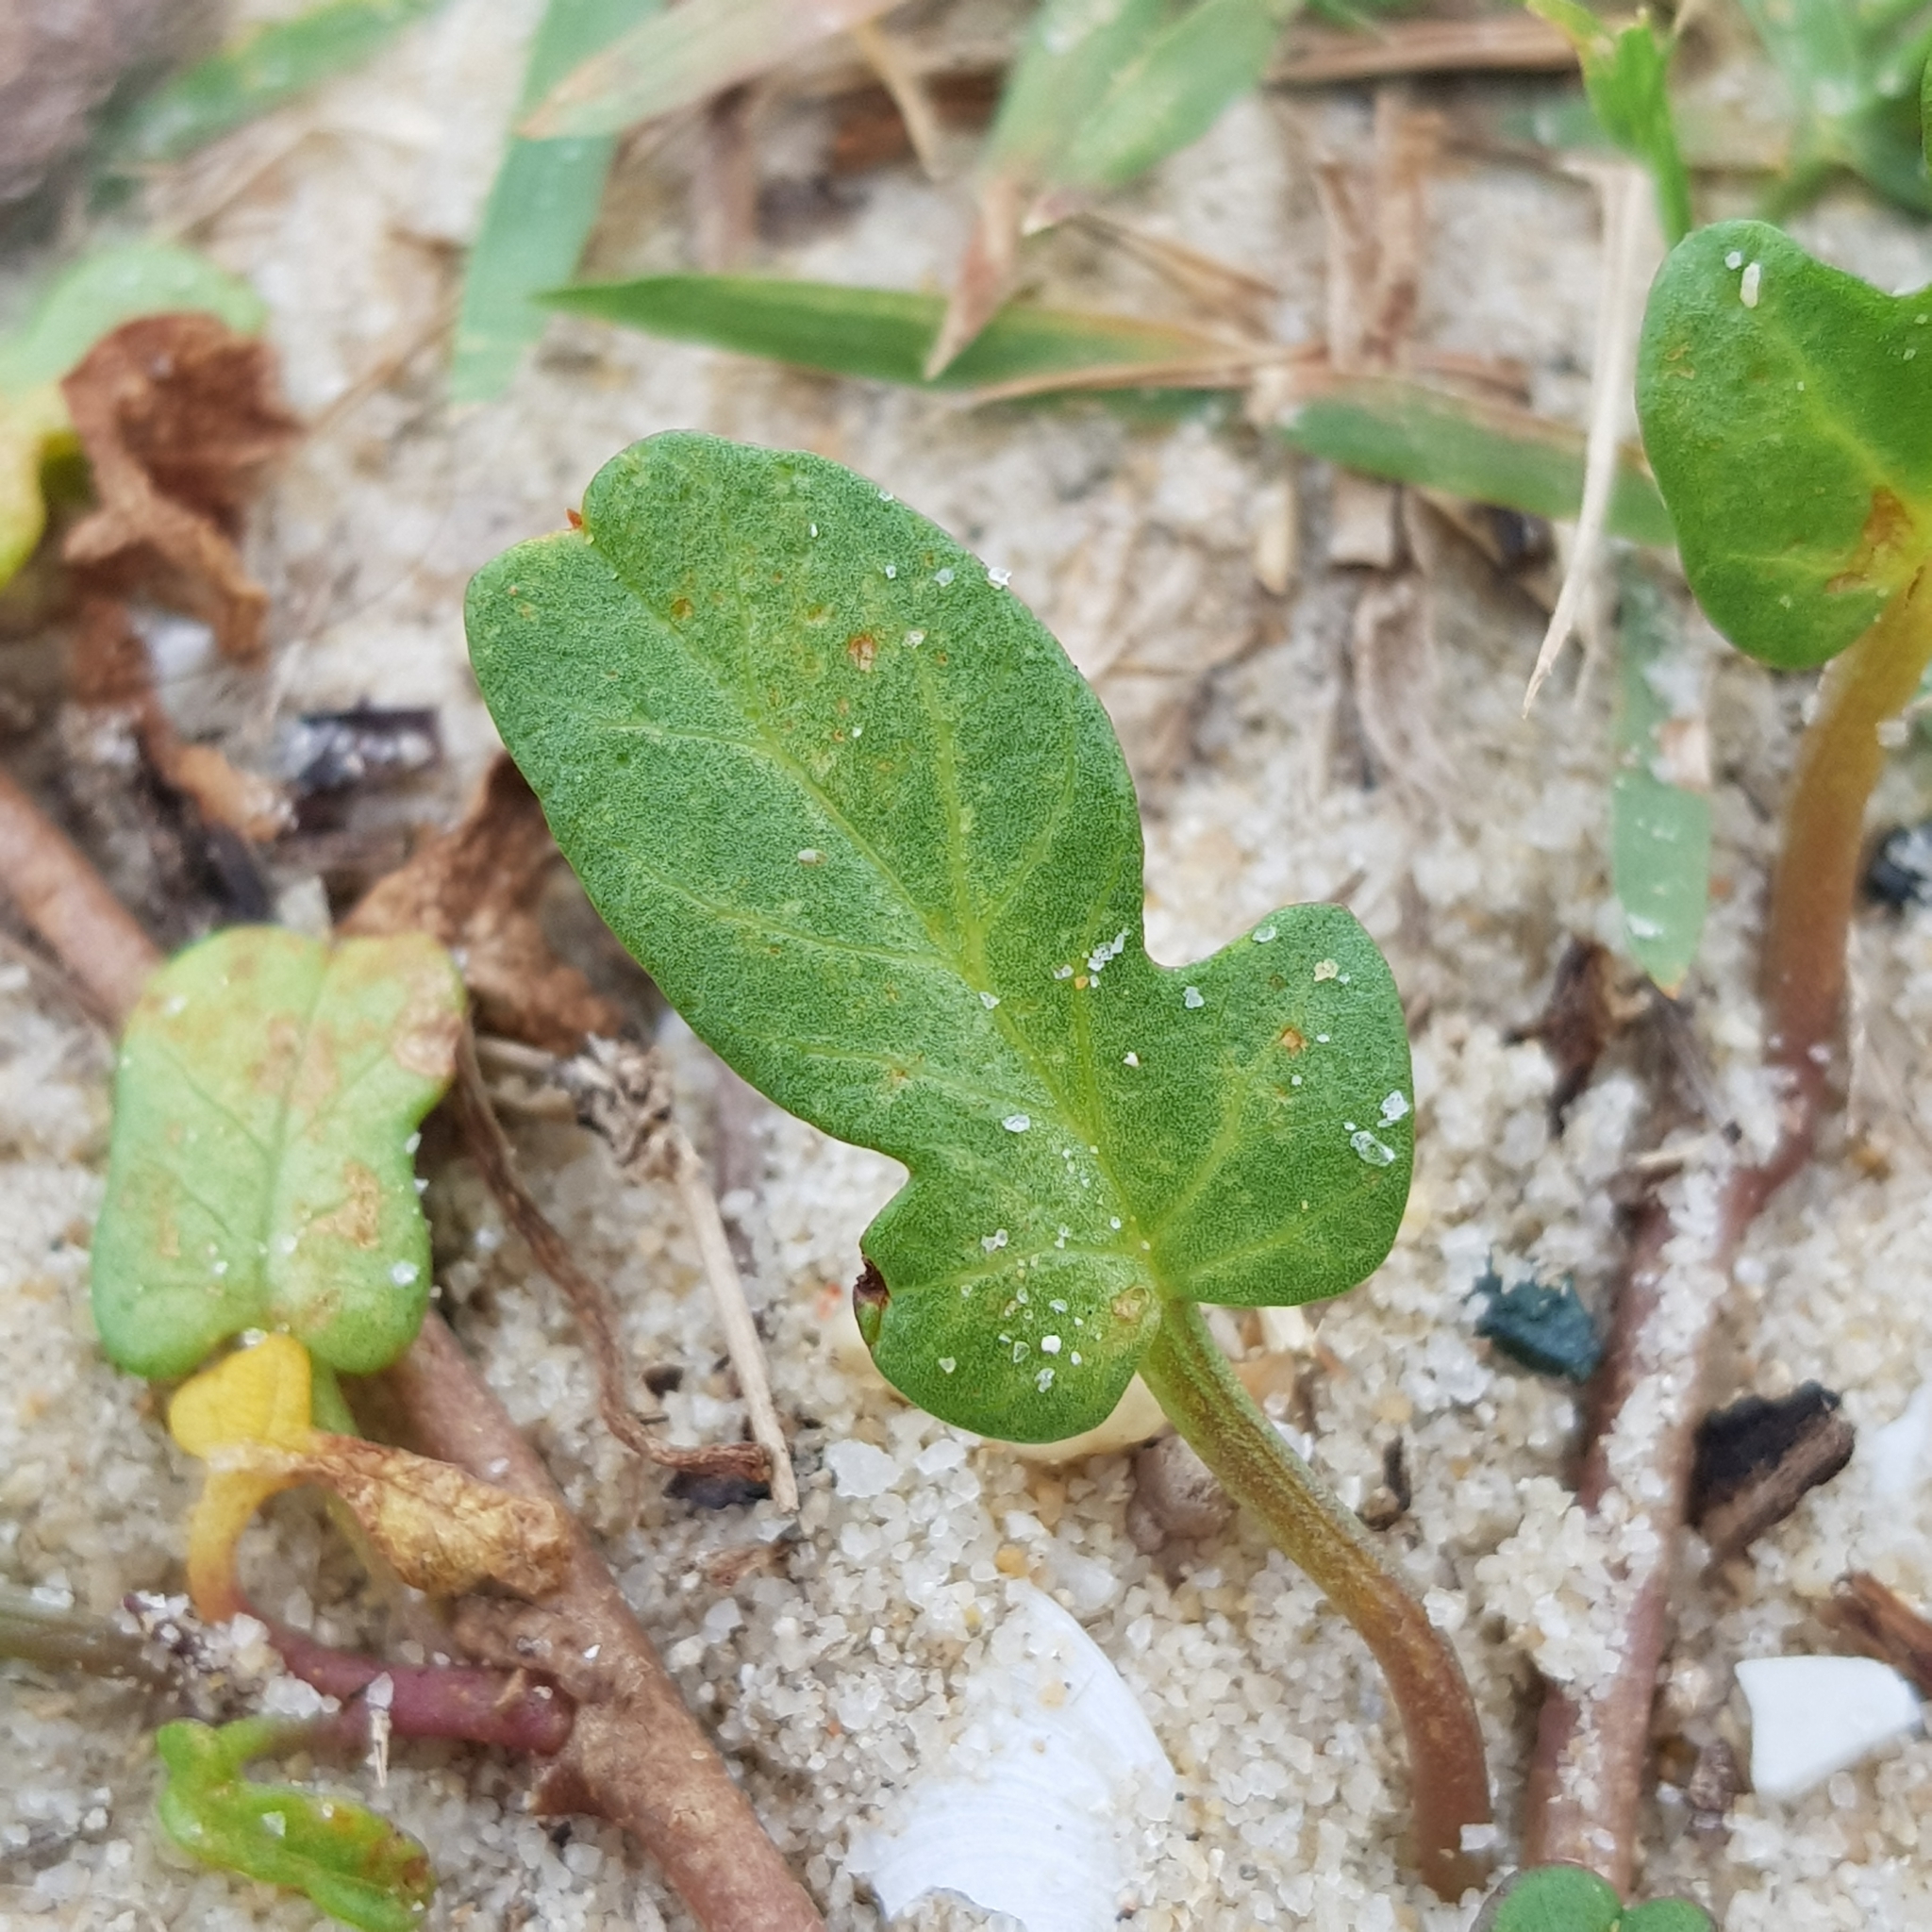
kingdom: Plantae
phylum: Tracheophyta
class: Magnoliopsida
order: Solanales
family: Convolvulaceae
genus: Ipomoea
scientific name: Ipomoea imperati
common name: Fiddle-leaf morning-glory
